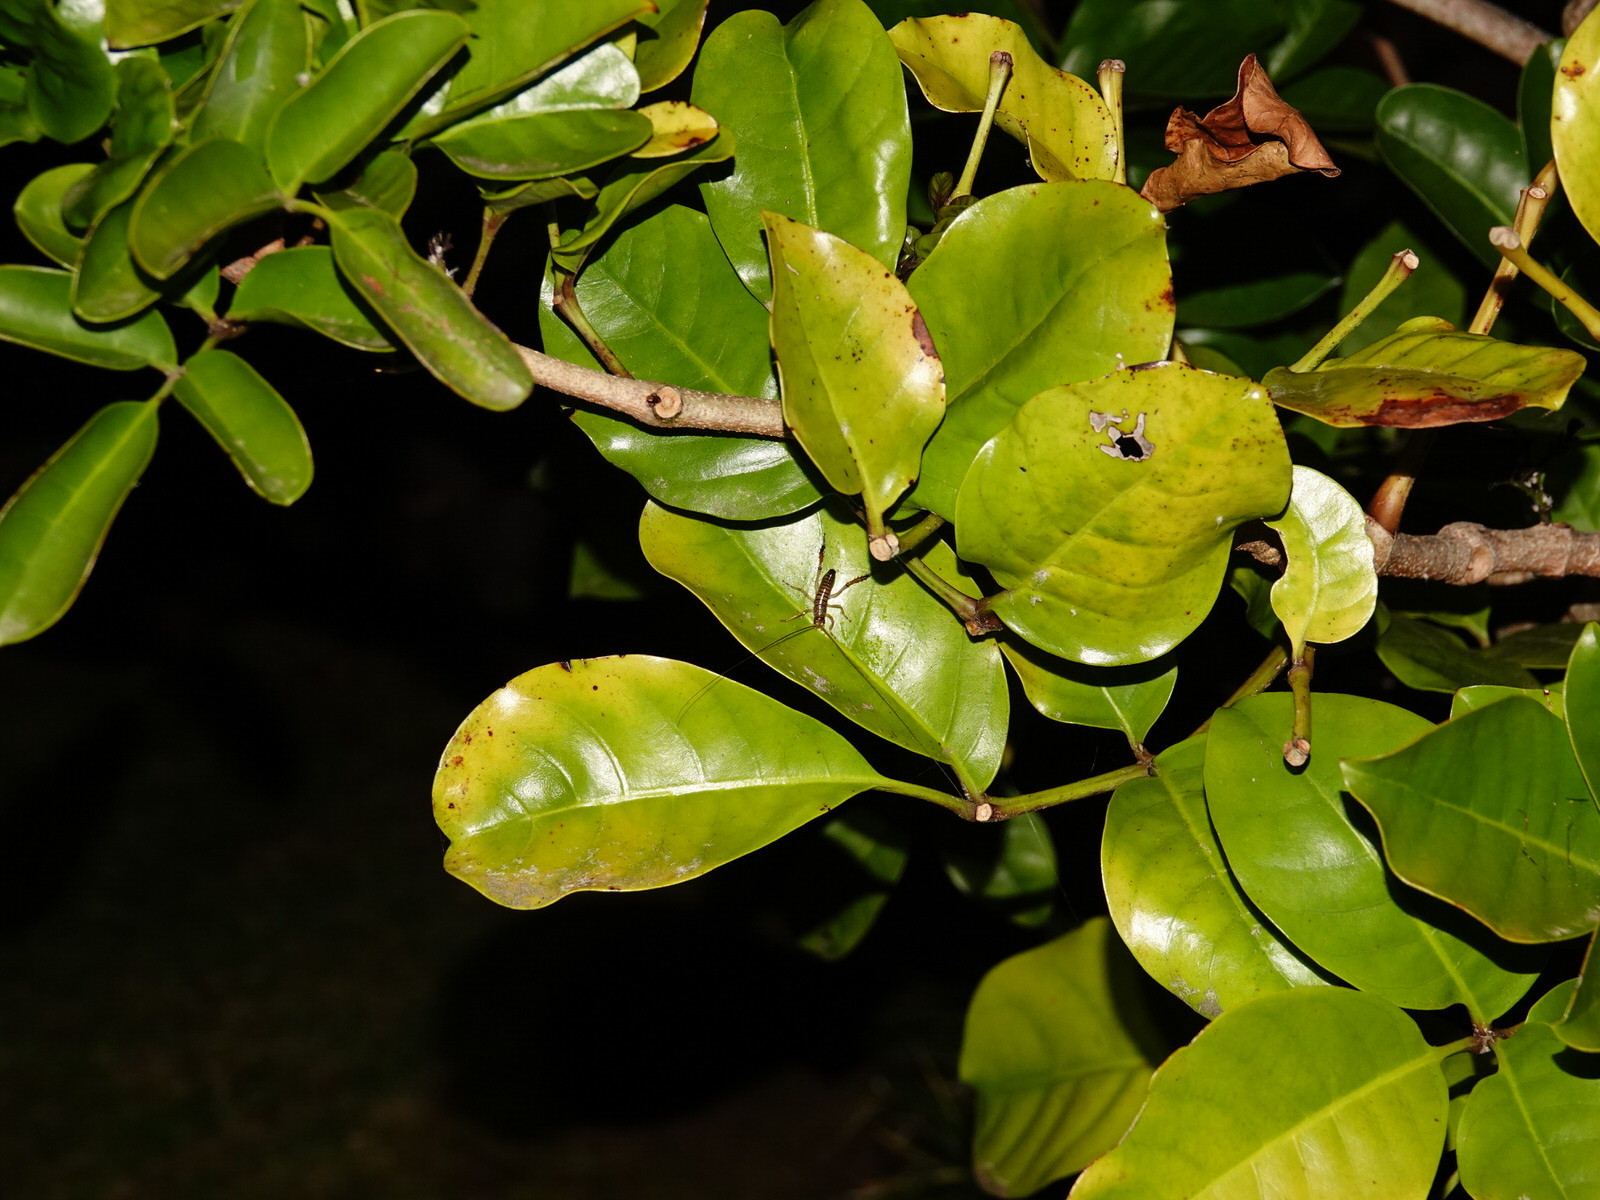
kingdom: Animalia
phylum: Arthropoda
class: Insecta
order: Orthoptera
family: Anostostomatidae
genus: Hemideina
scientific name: Hemideina thoracica
